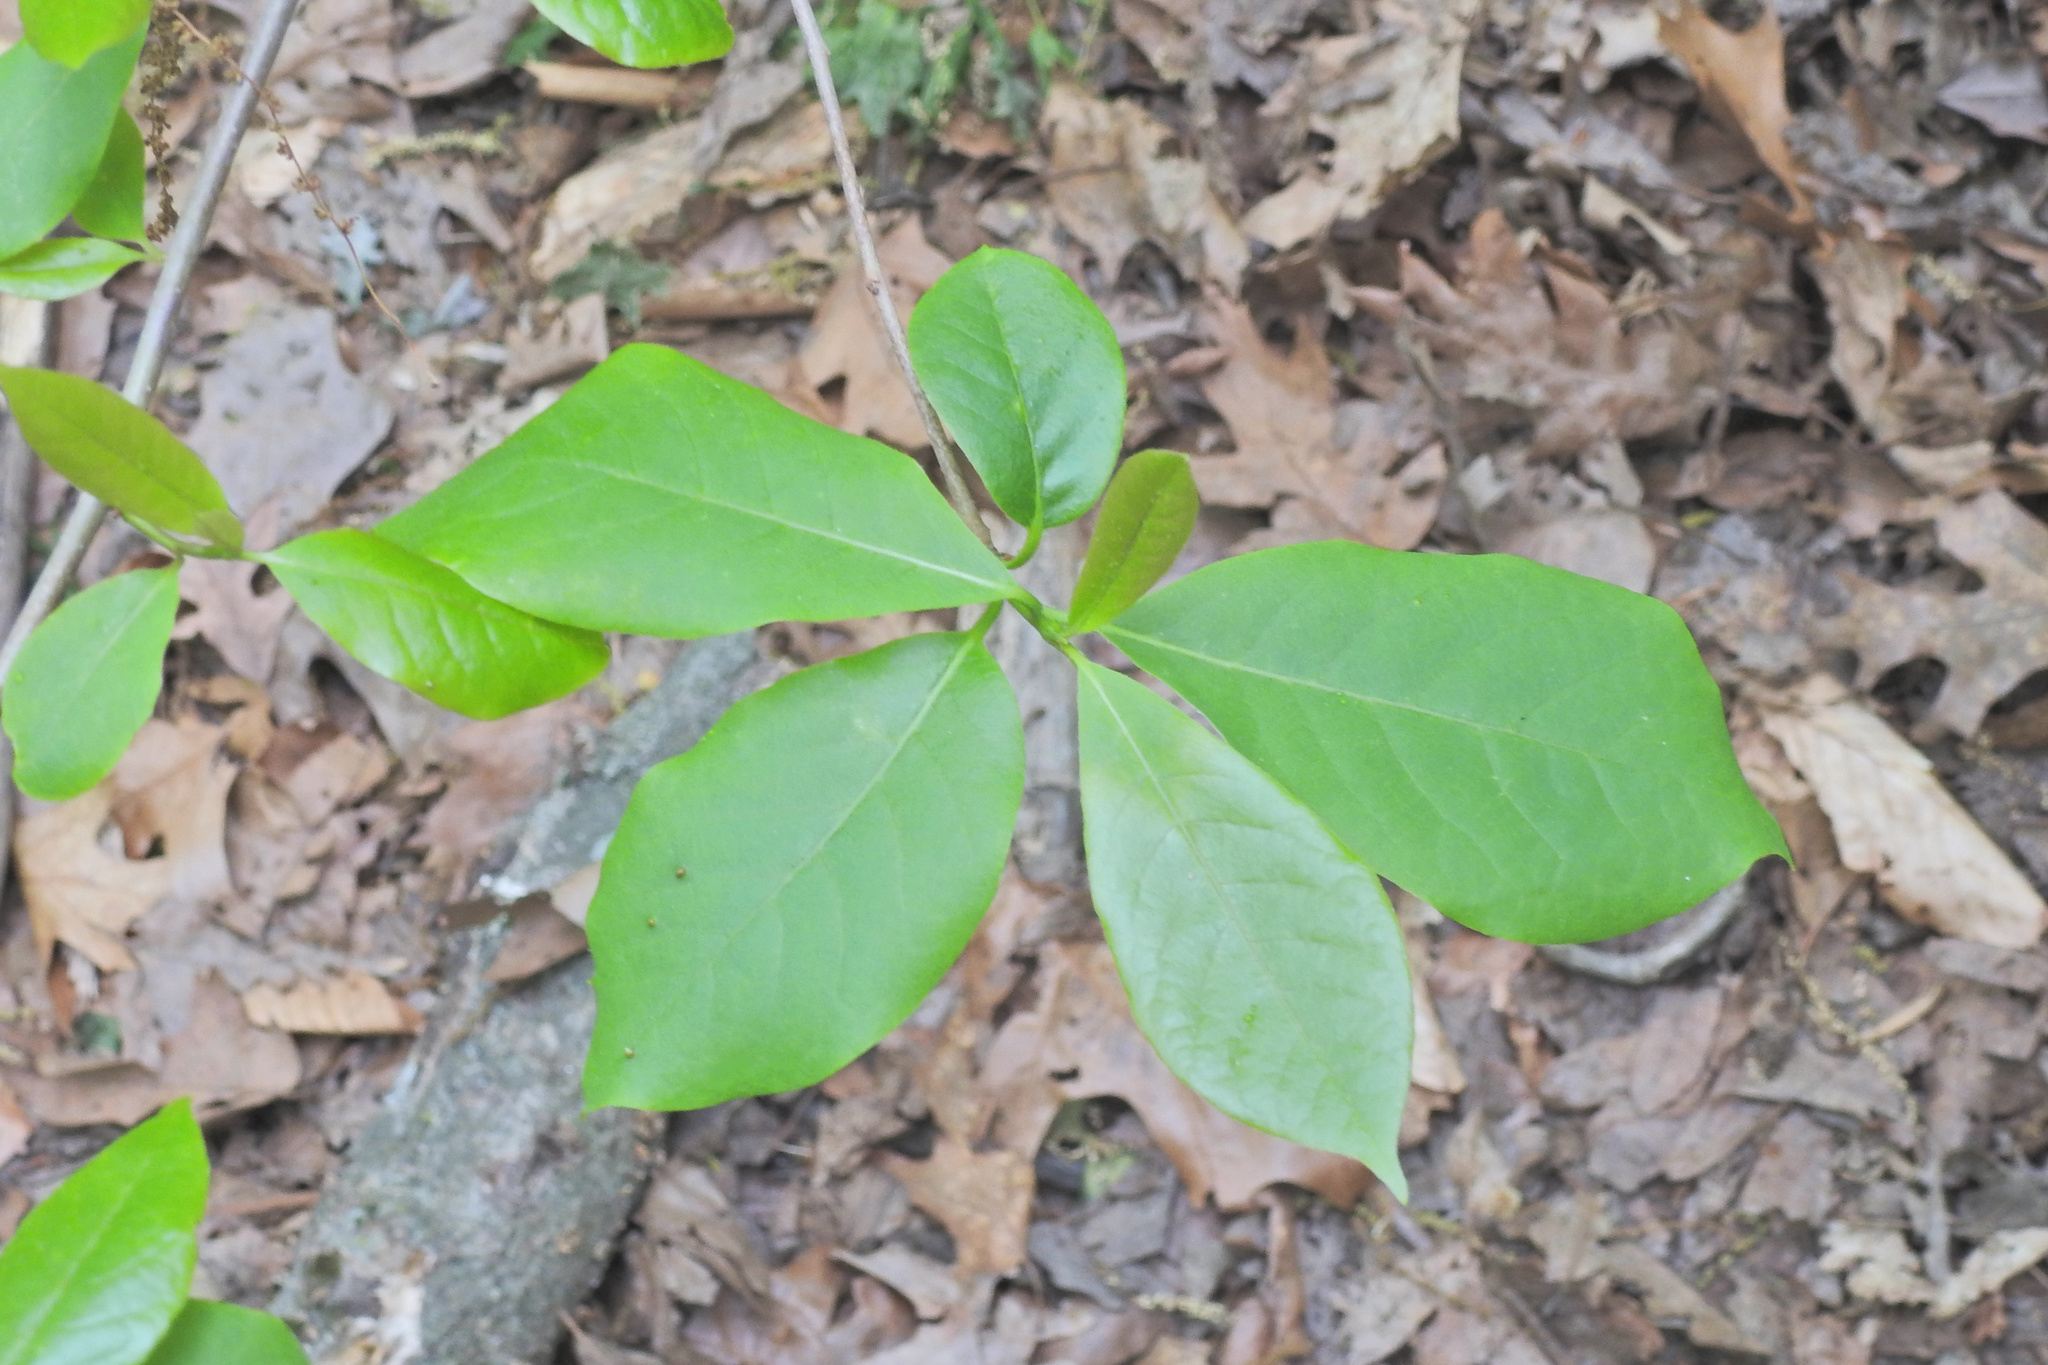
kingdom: Plantae
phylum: Tracheophyta
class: Magnoliopsida
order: Cornales
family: Nyssaceae
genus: Nyssa
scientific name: Nyssa sylvatica
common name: Black tupelo
